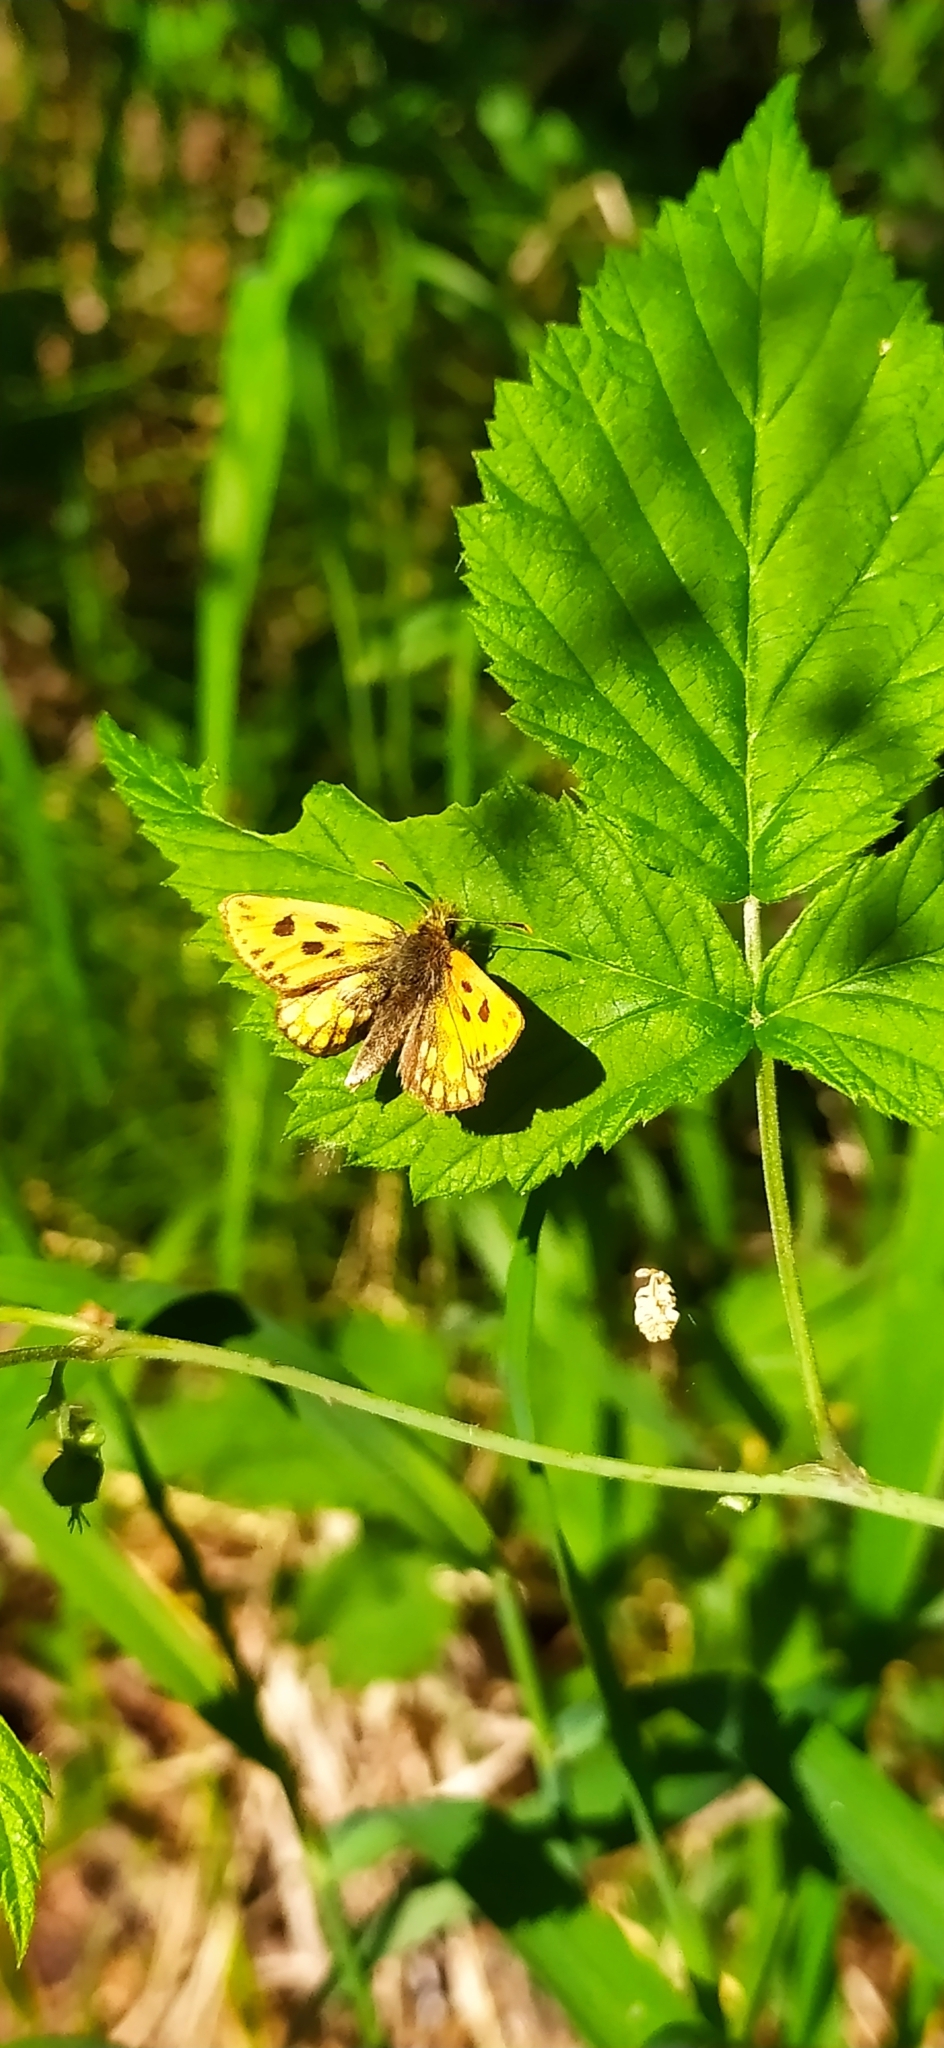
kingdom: Animalia
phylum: Arthropoda
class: Insecta
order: Lepidoptera
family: Hesperiidae
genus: Carterocephalus
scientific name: Carterocephalus silvicola
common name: Northern chequered skipper
